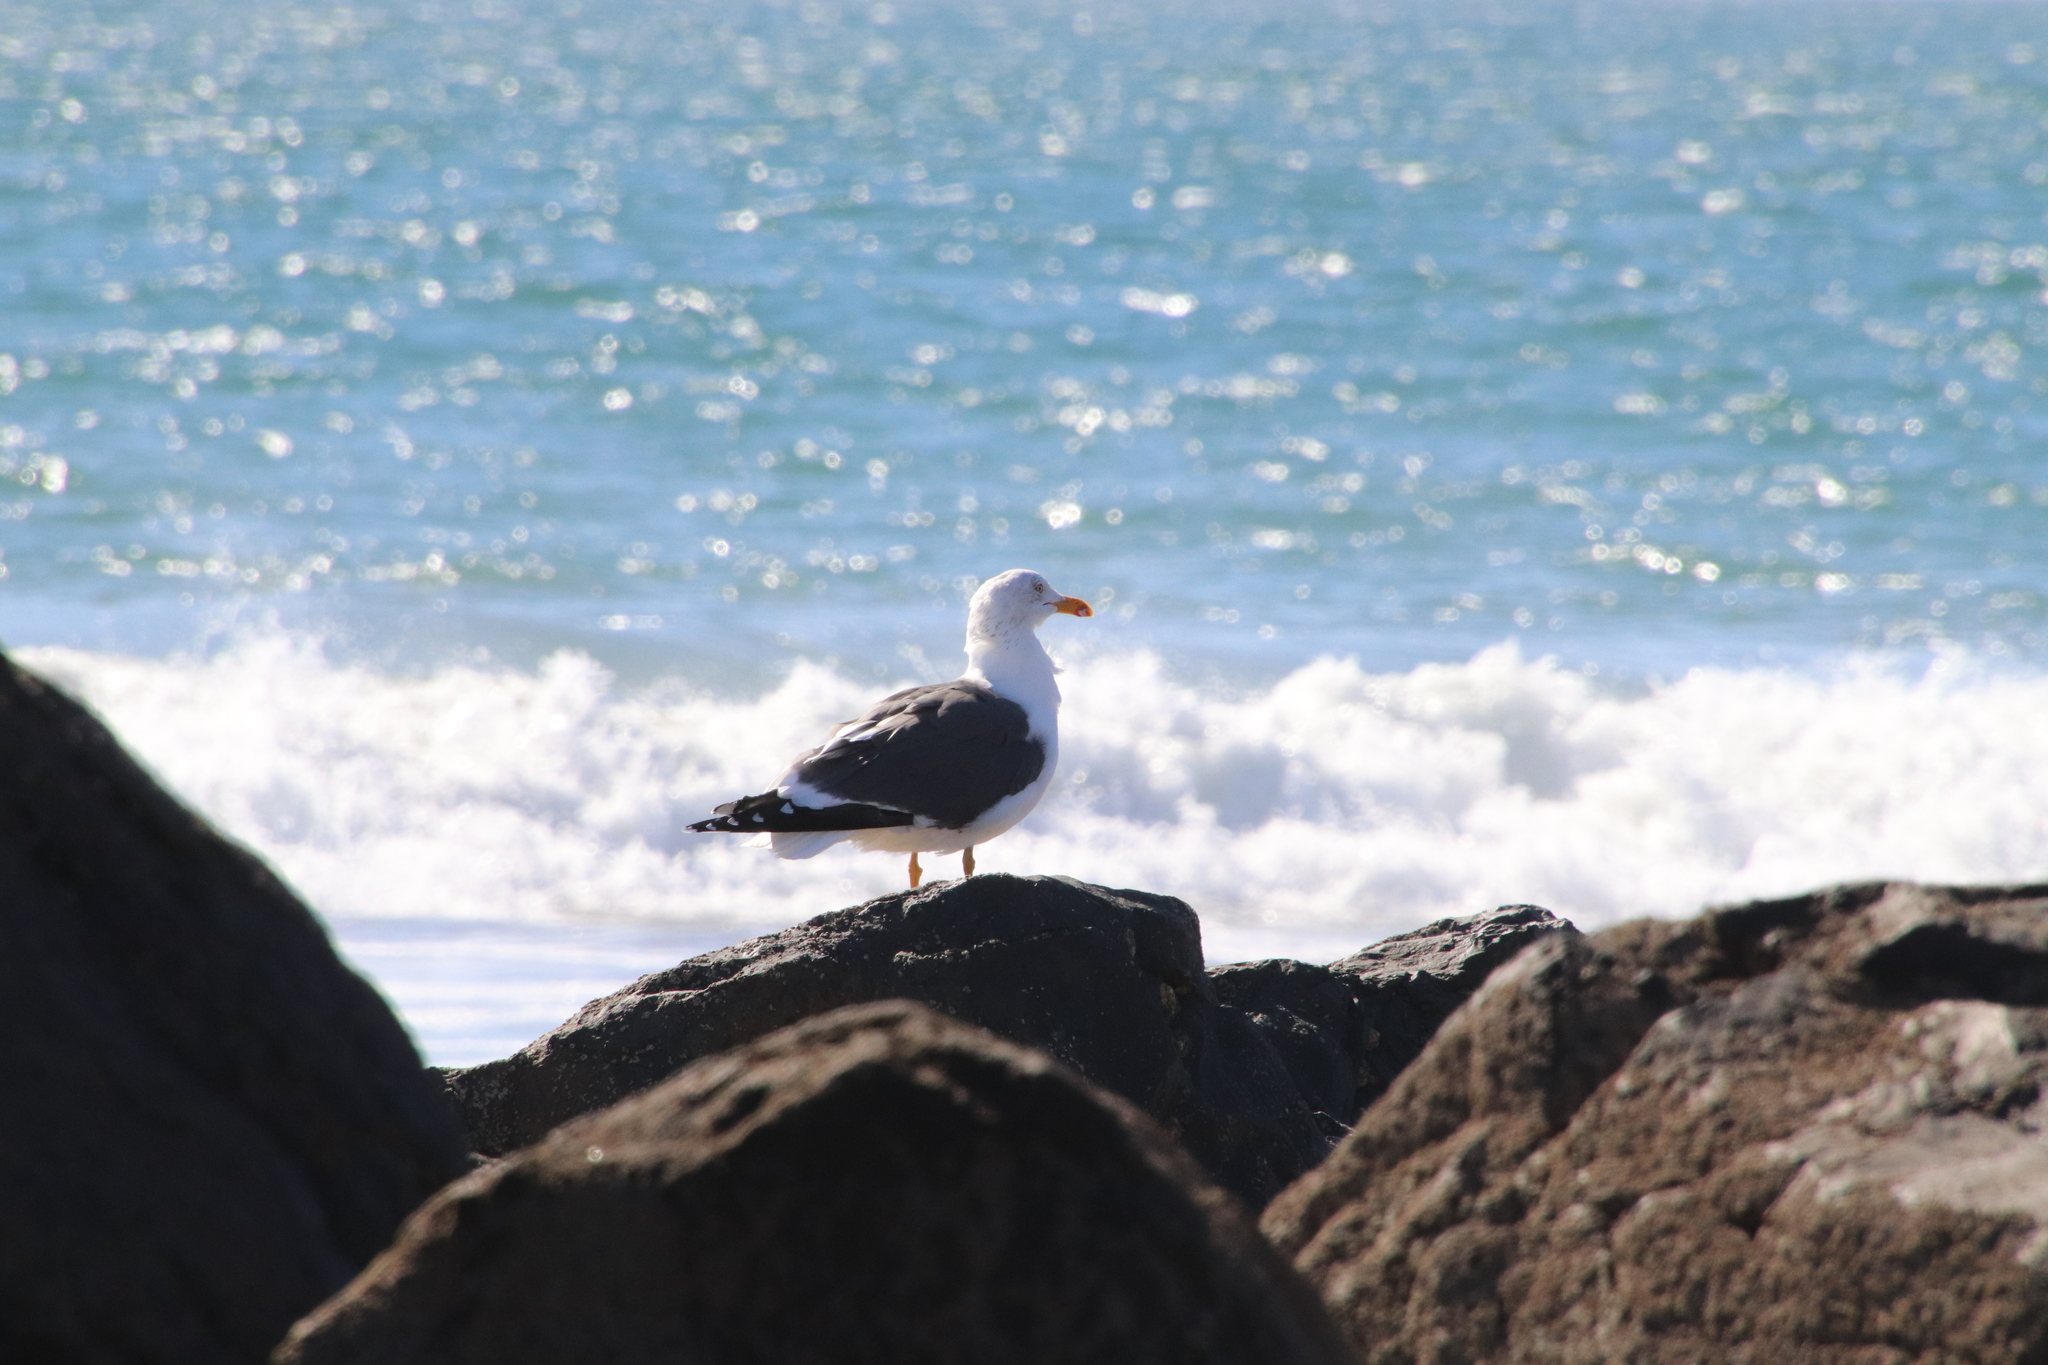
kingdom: Animalia
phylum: Chordata
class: Aves
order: Charadriiformes
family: Laridae
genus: Larus
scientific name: Larus fuscus
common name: Lesser black-backed gull
